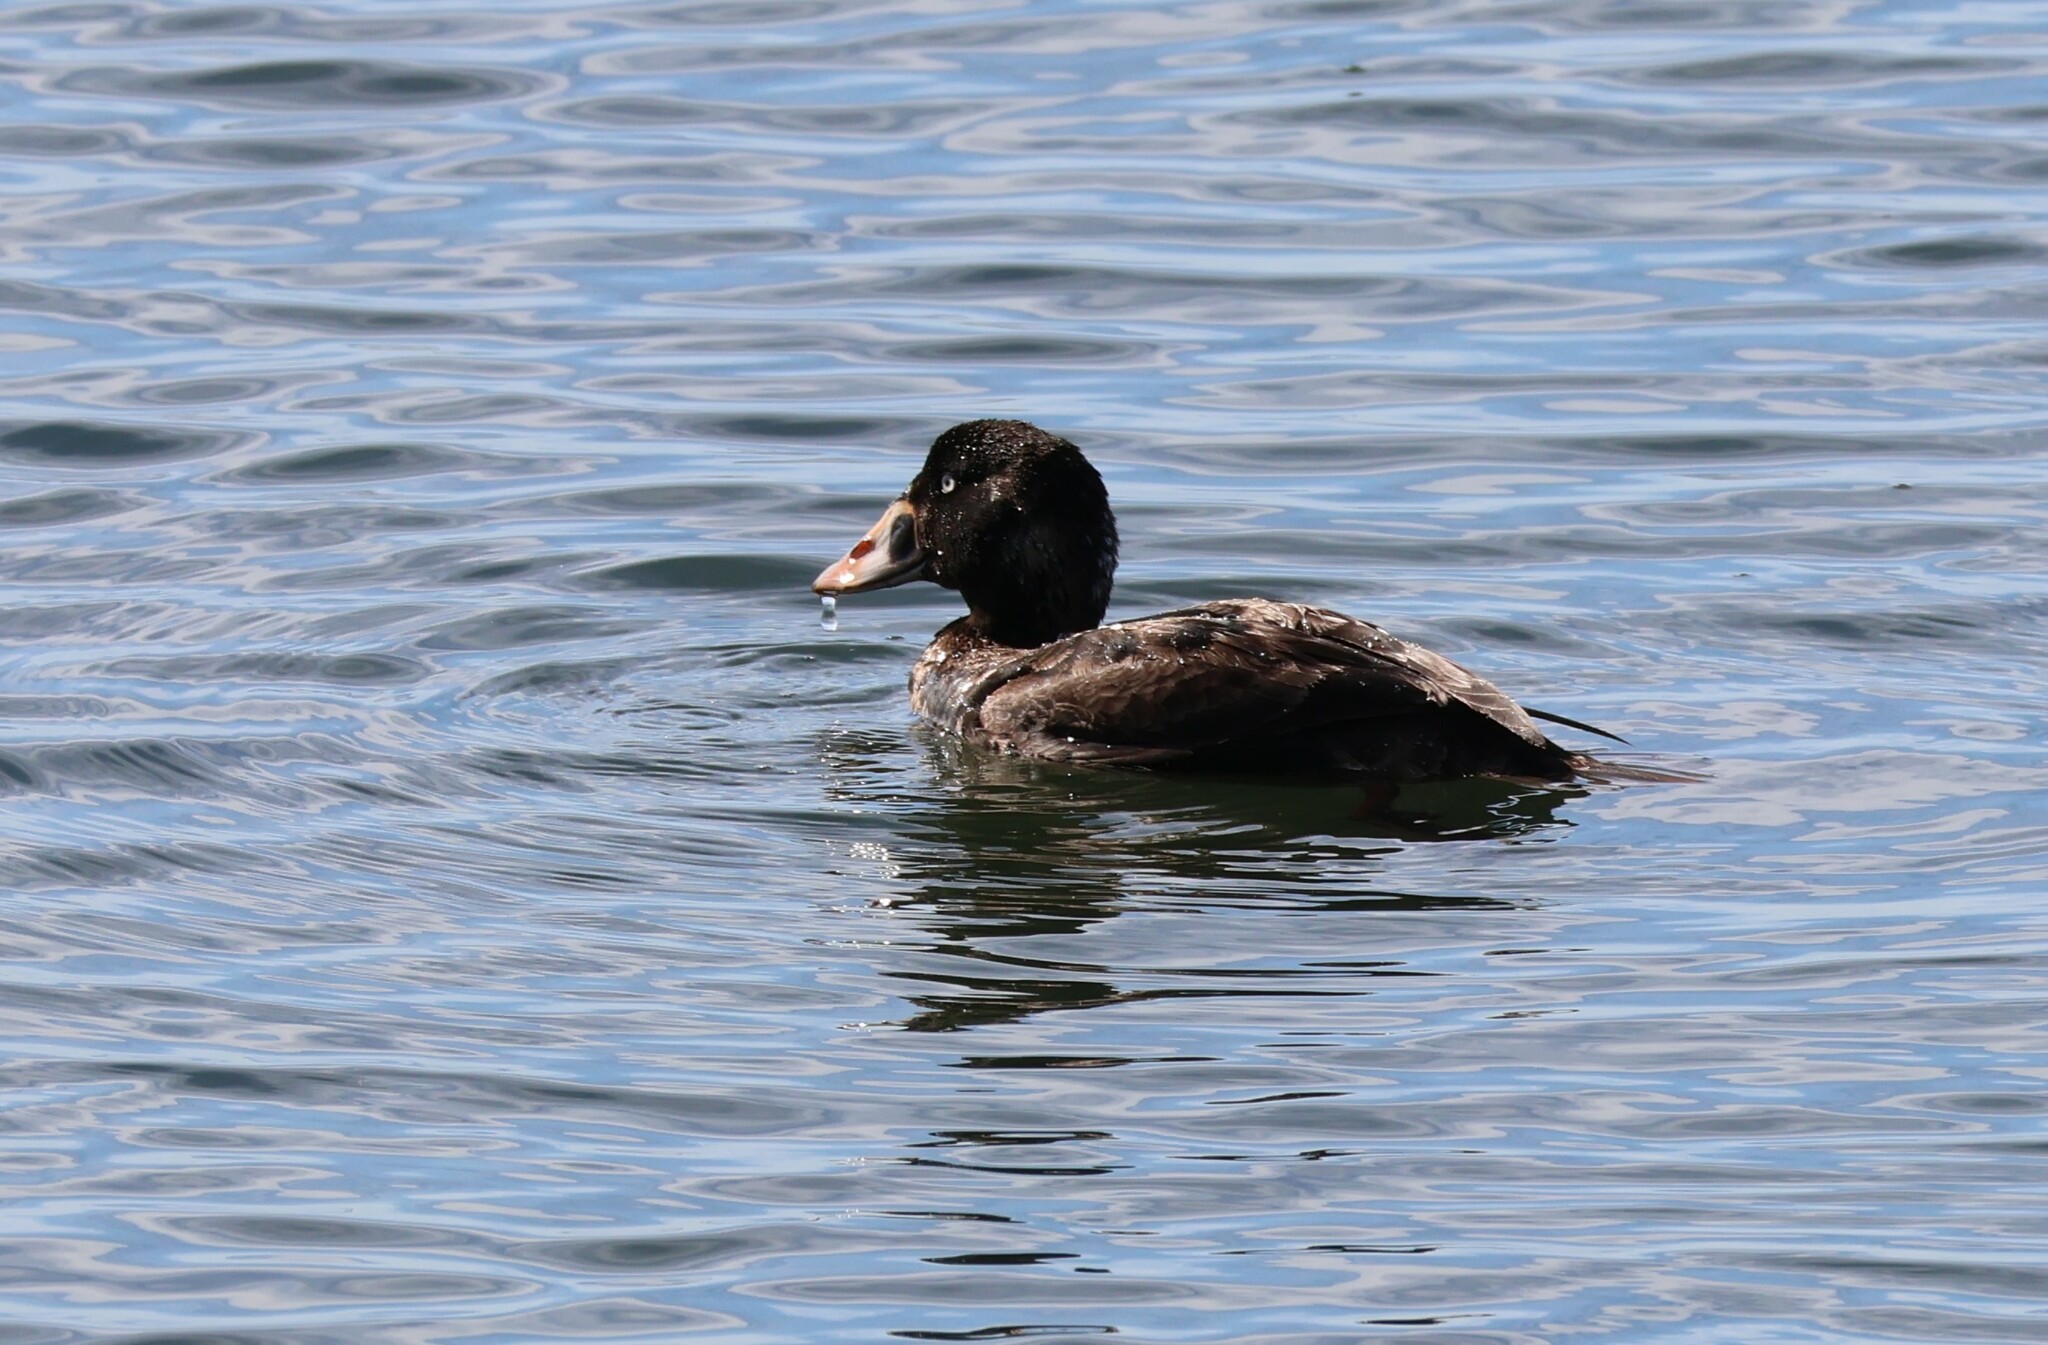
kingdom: Animalia
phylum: Chordata
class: Aves
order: Anseriformes
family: Anatidae
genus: Melanitta
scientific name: Melanitta perspicillata
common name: Surf scoter
